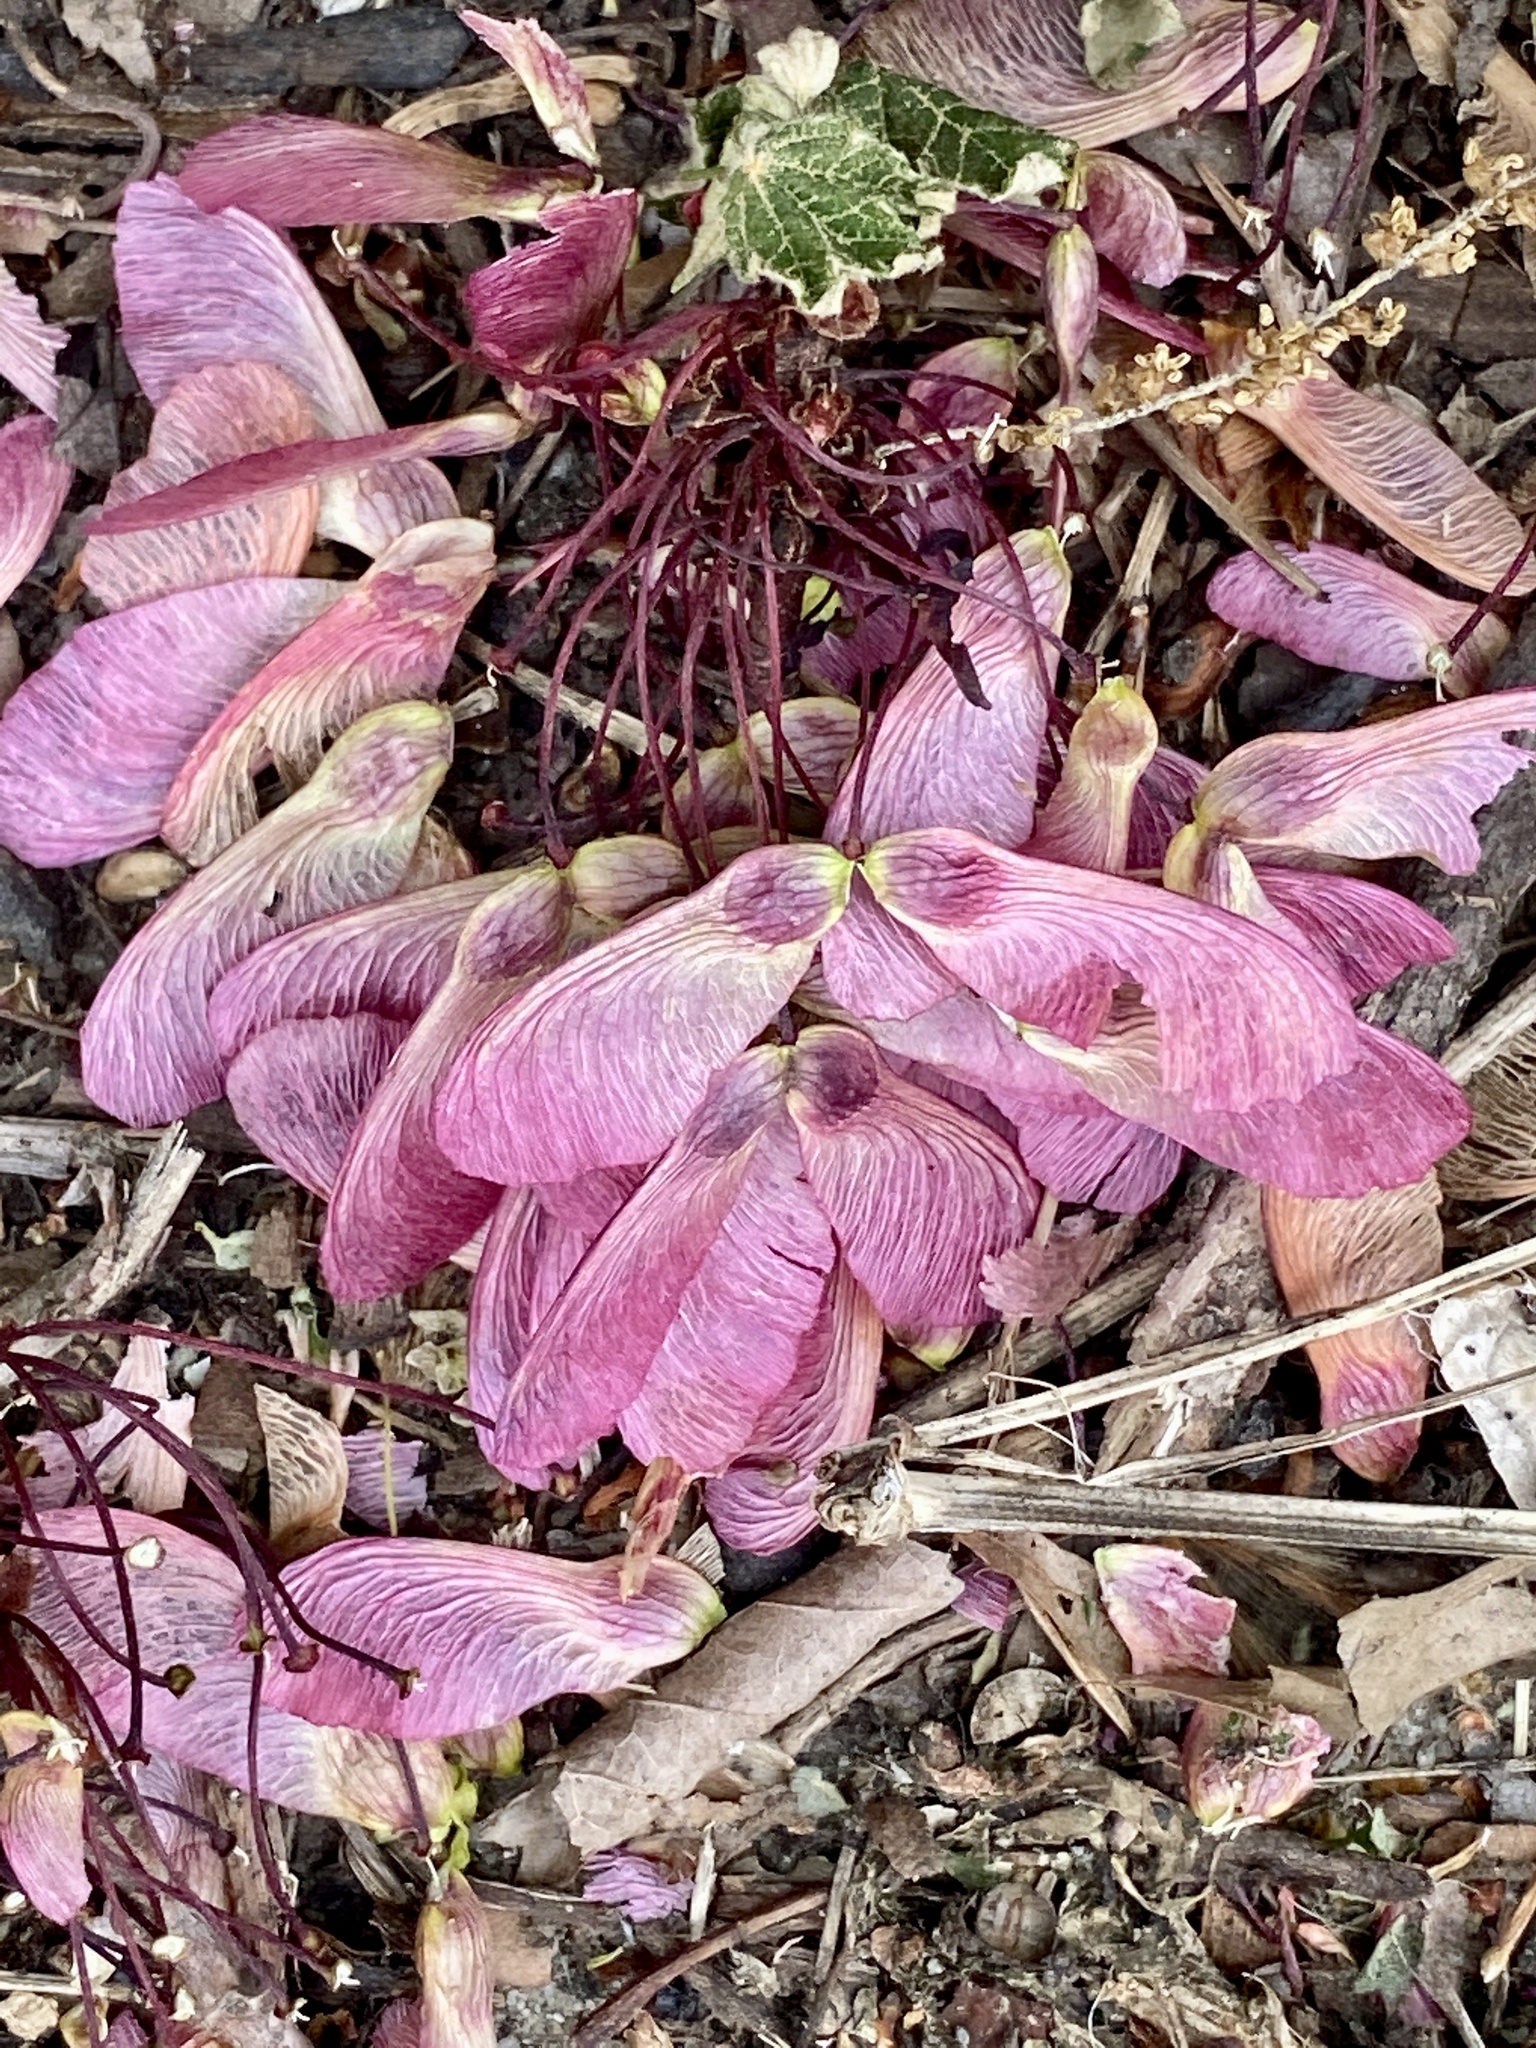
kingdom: Plantae
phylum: Tracheophyta
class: Magnoliopsida
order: Sapindales
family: Sapindaceae
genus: Acer
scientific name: Acer rubrum
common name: Red maple
